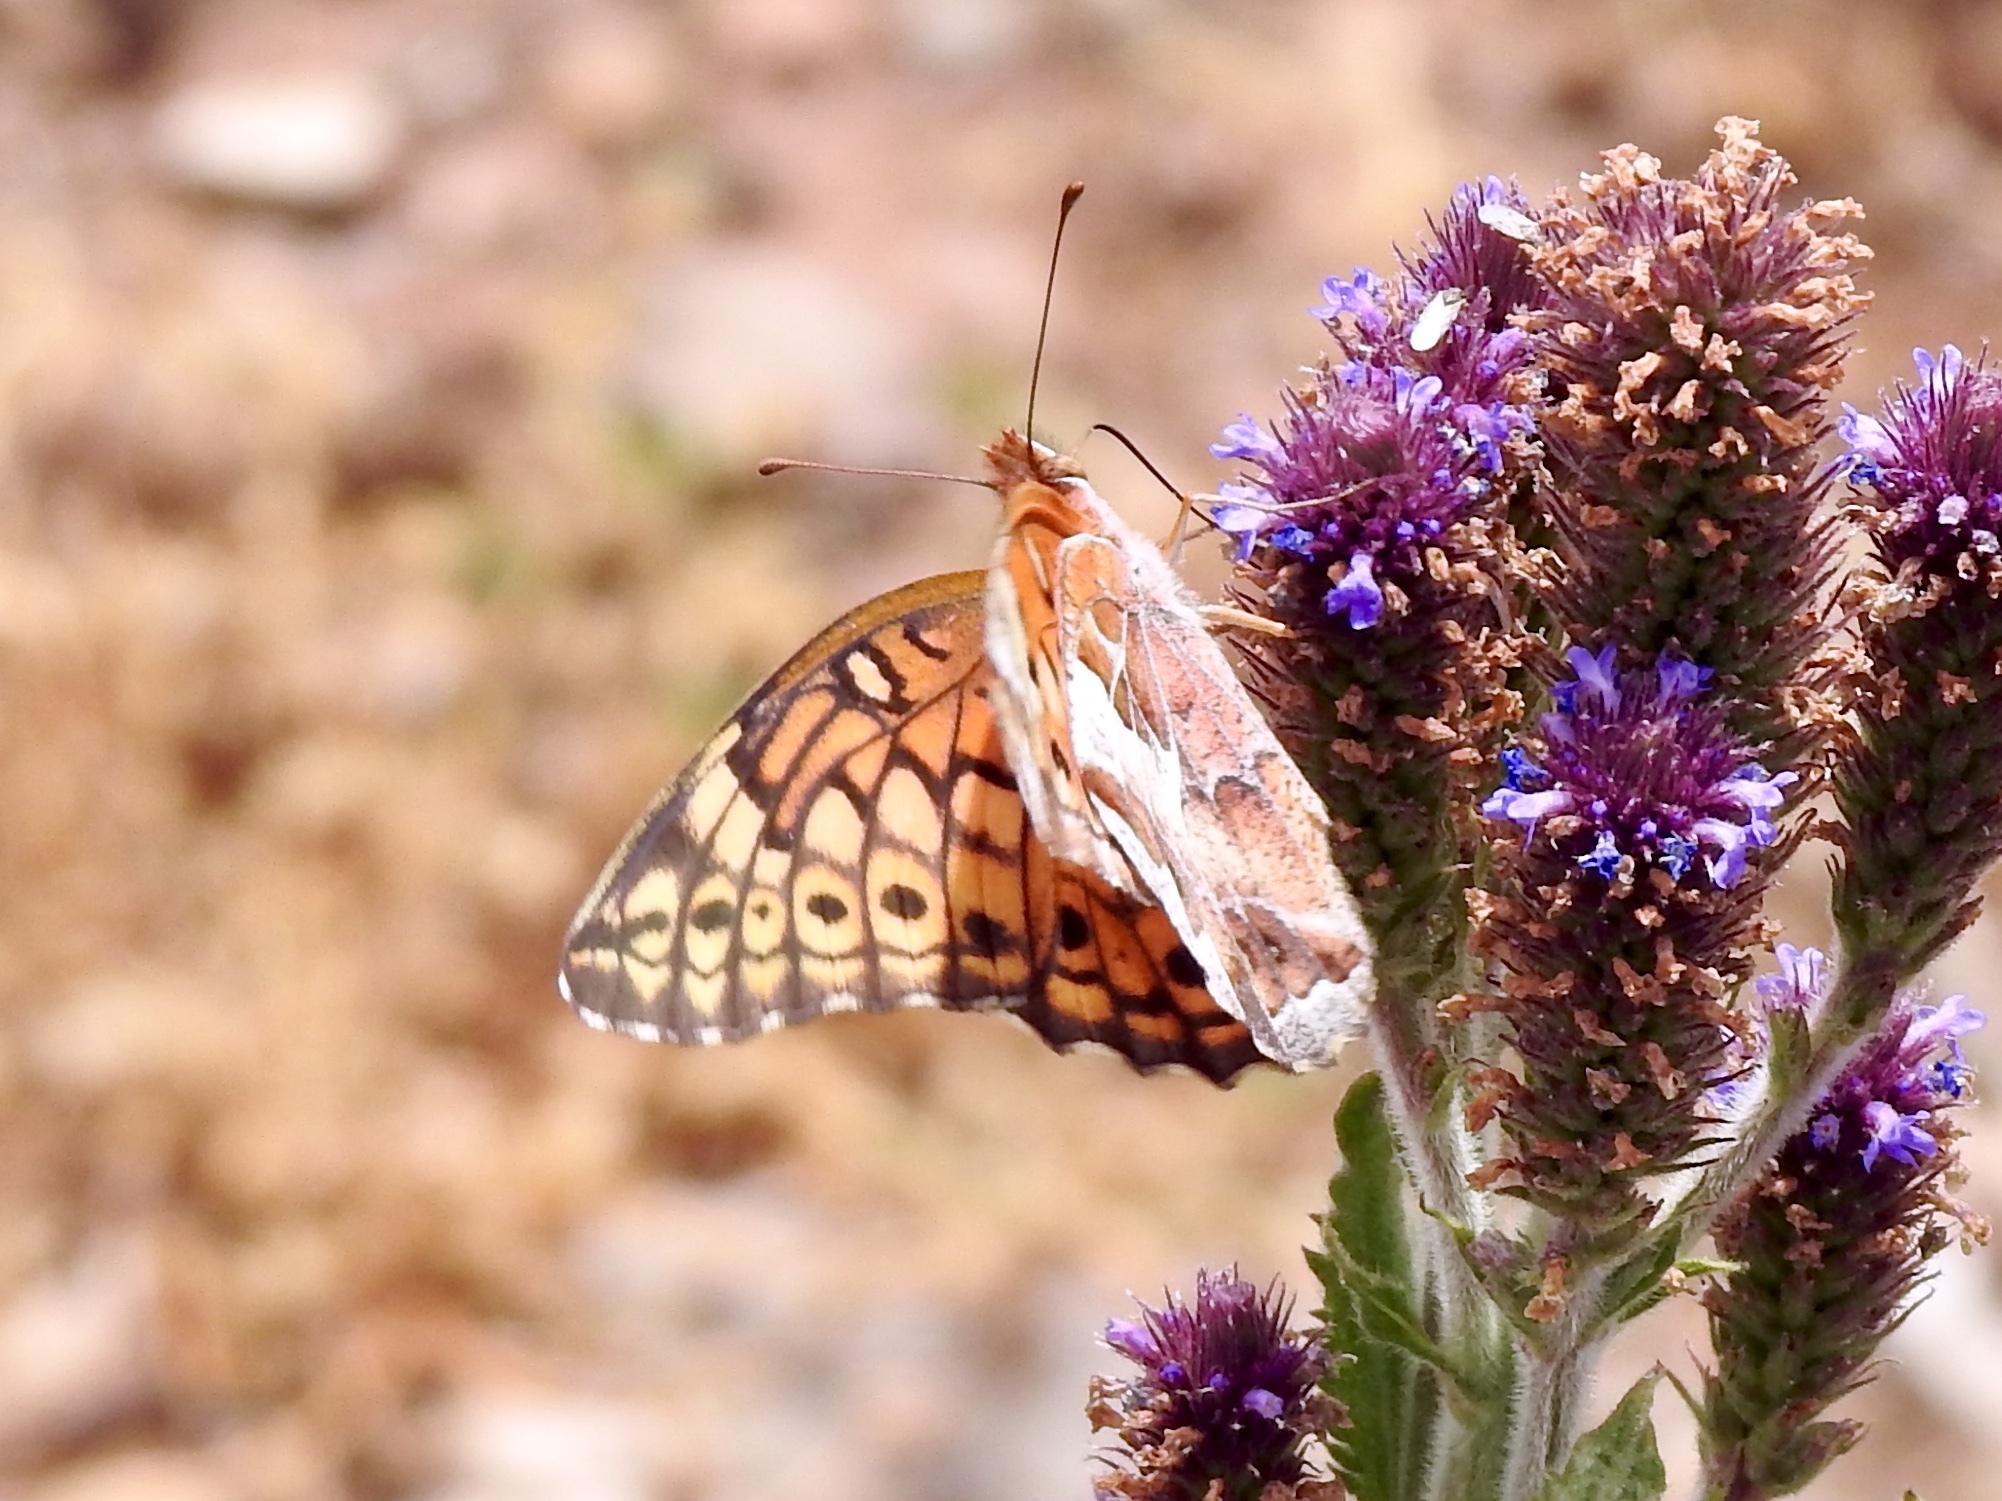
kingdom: Animalia
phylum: Arthropoda
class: Insecta
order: Lepidoptera
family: Nymphalidae
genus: Euptoieta
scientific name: Euptoieta claudia
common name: Variegated fritillary
